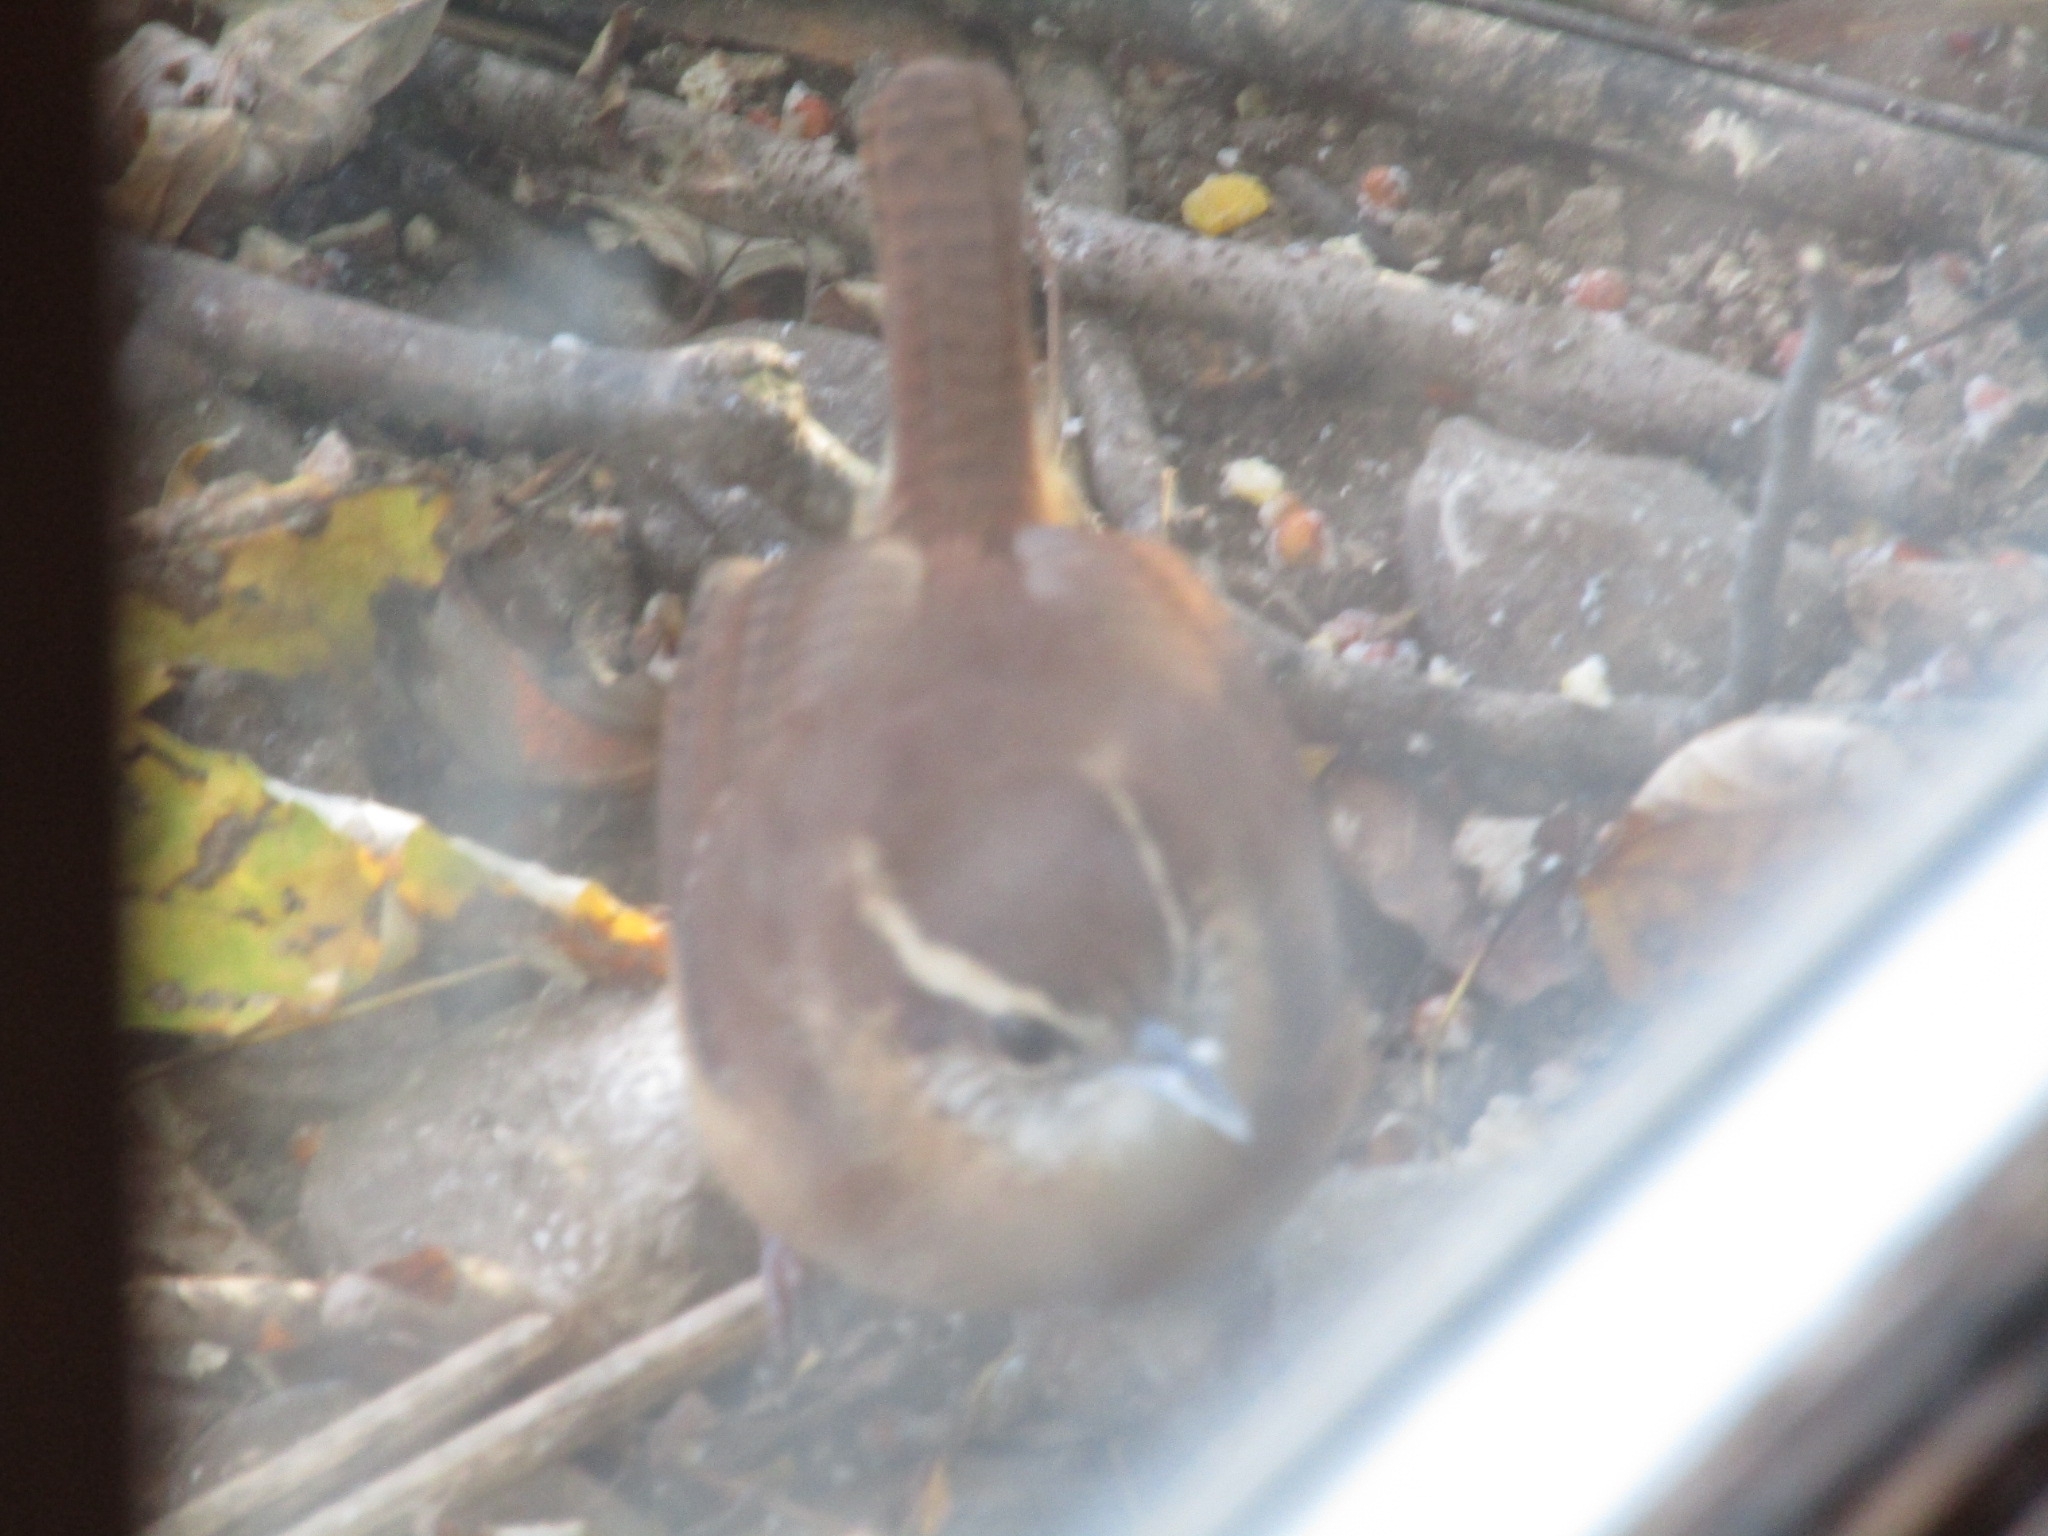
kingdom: Animalia
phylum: Chordata
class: Aves
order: Passeriformes
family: Troglodytidae
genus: Thryothorus
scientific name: Thryothorus ludovicianus
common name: Carolina wren
